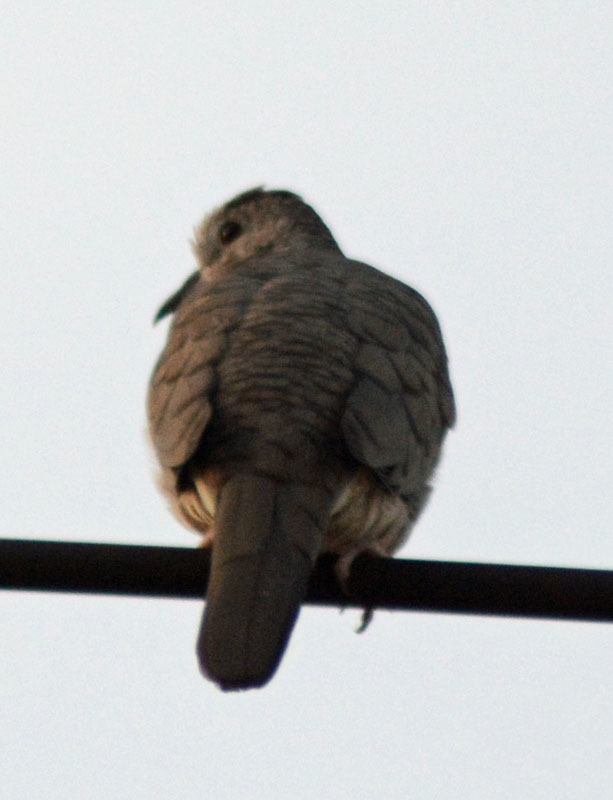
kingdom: Animalia
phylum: Chordata
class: Aves
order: Columbiformes
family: Columbidae
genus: Columbina
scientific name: Columbina inca
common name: Inca dove
